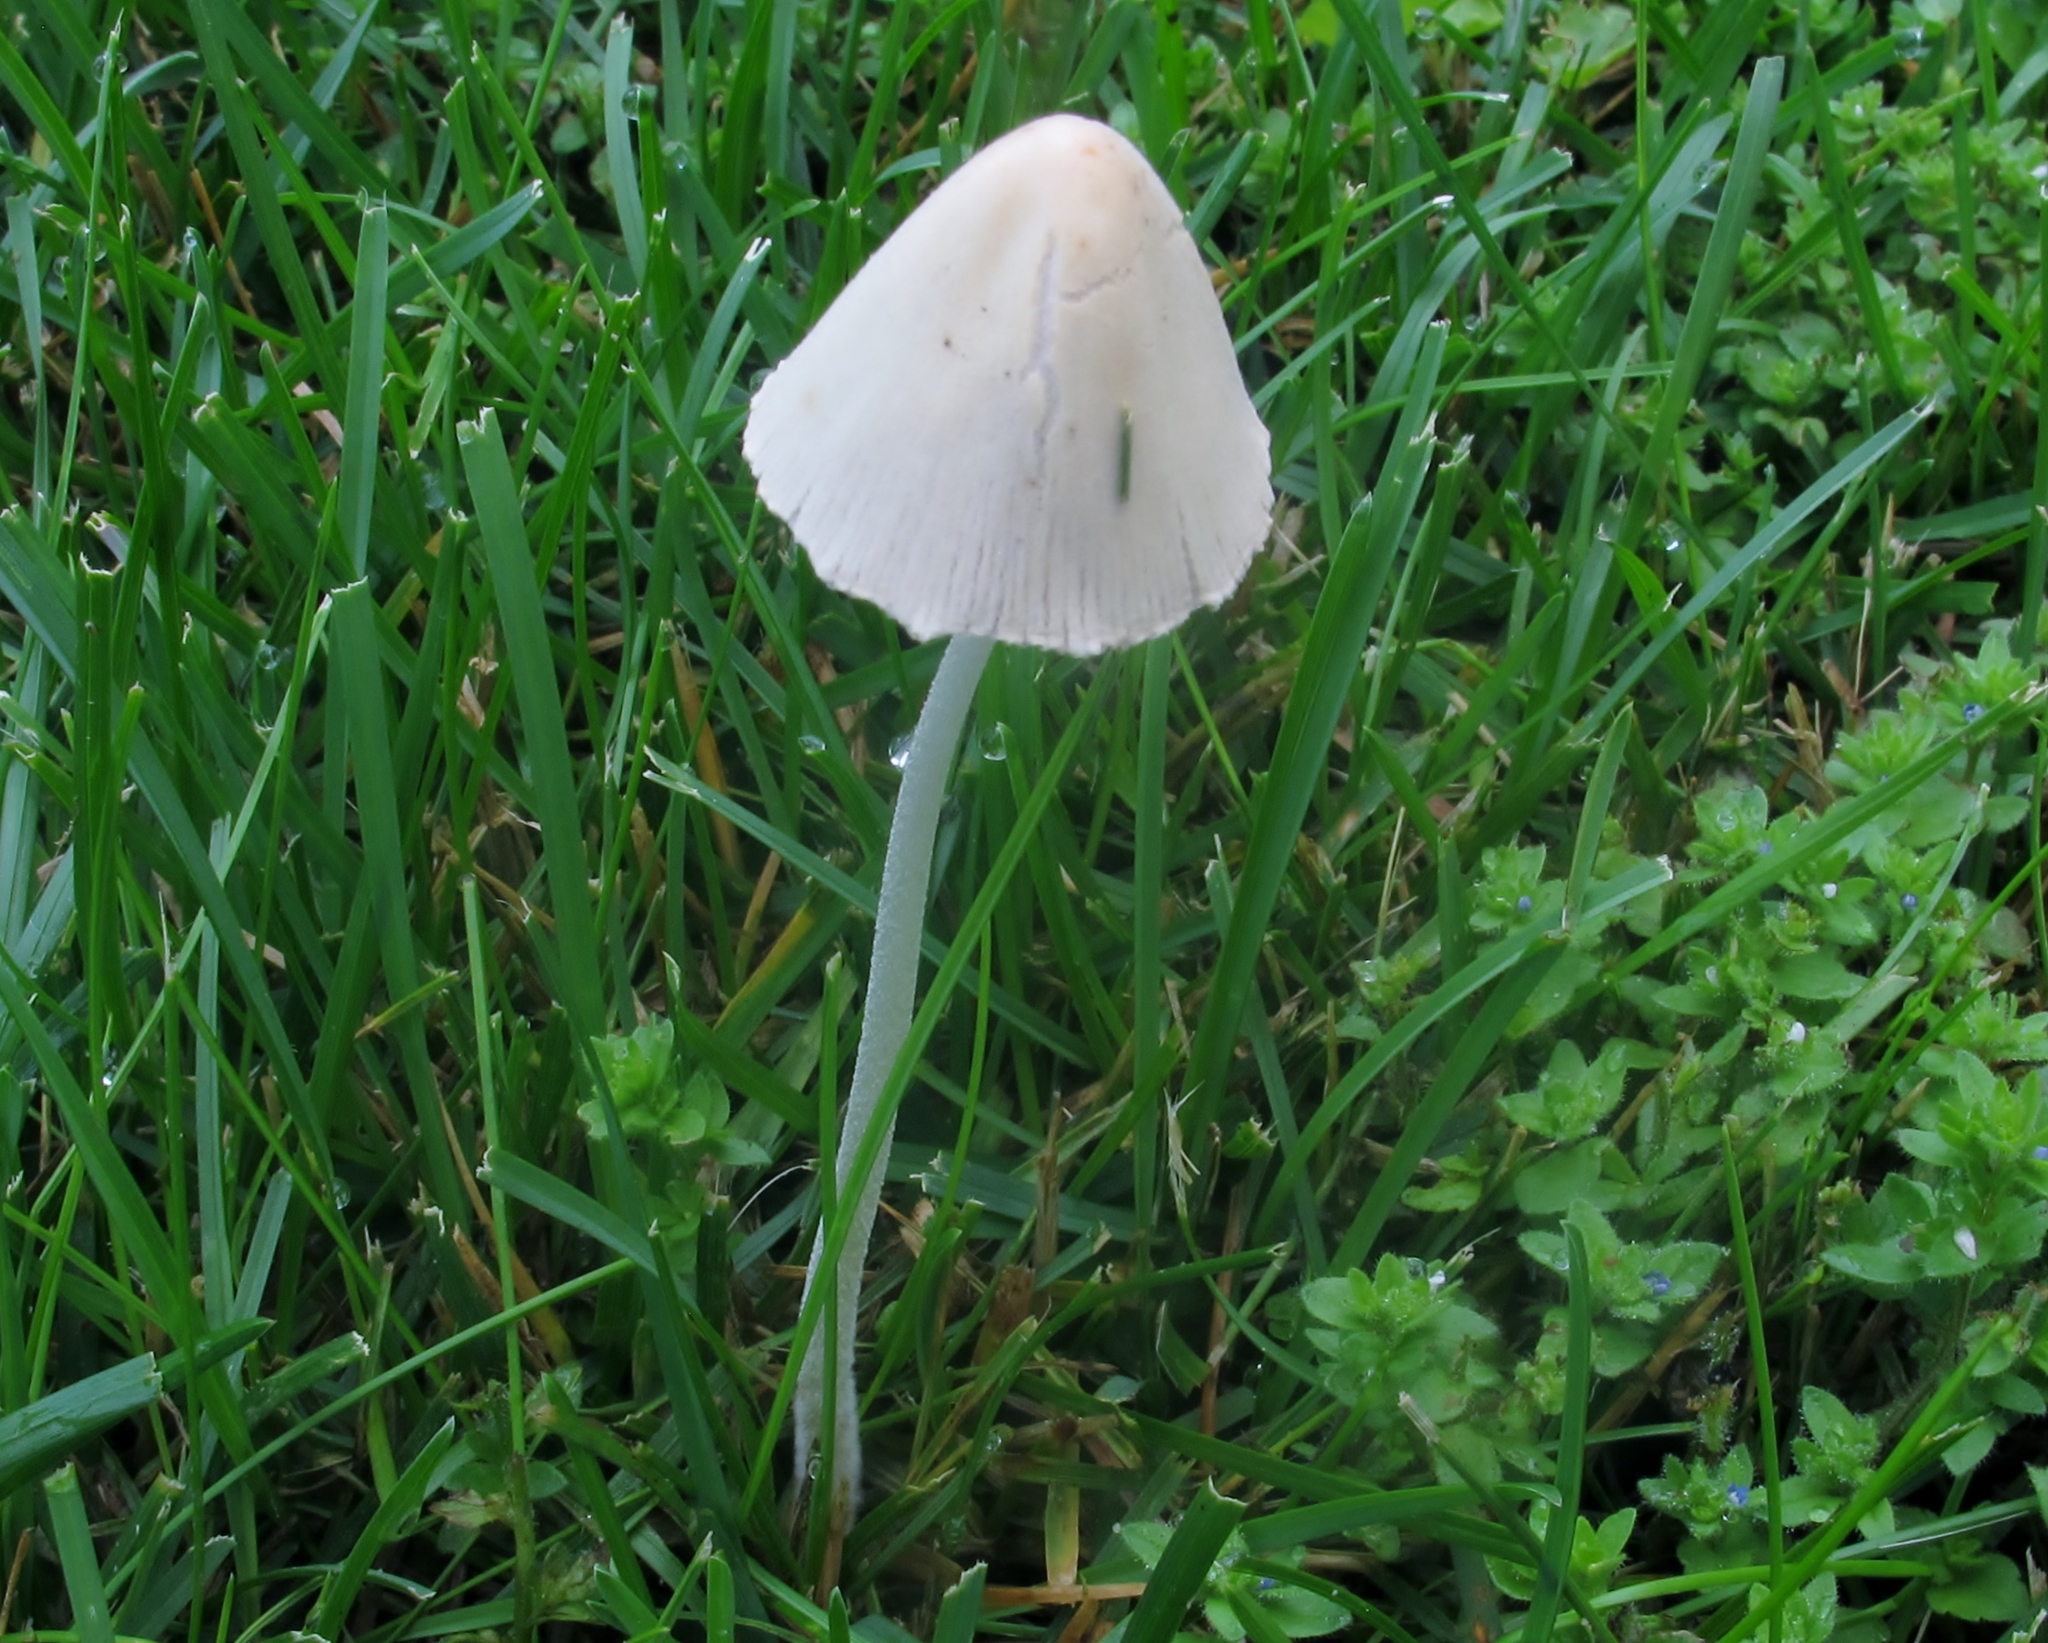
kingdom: Fungi
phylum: Basidiomycota
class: Agaricomycetes
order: Agaricales
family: Bolbitiaceae
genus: Conocybe
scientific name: Conocybe apala
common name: Milky conecap
